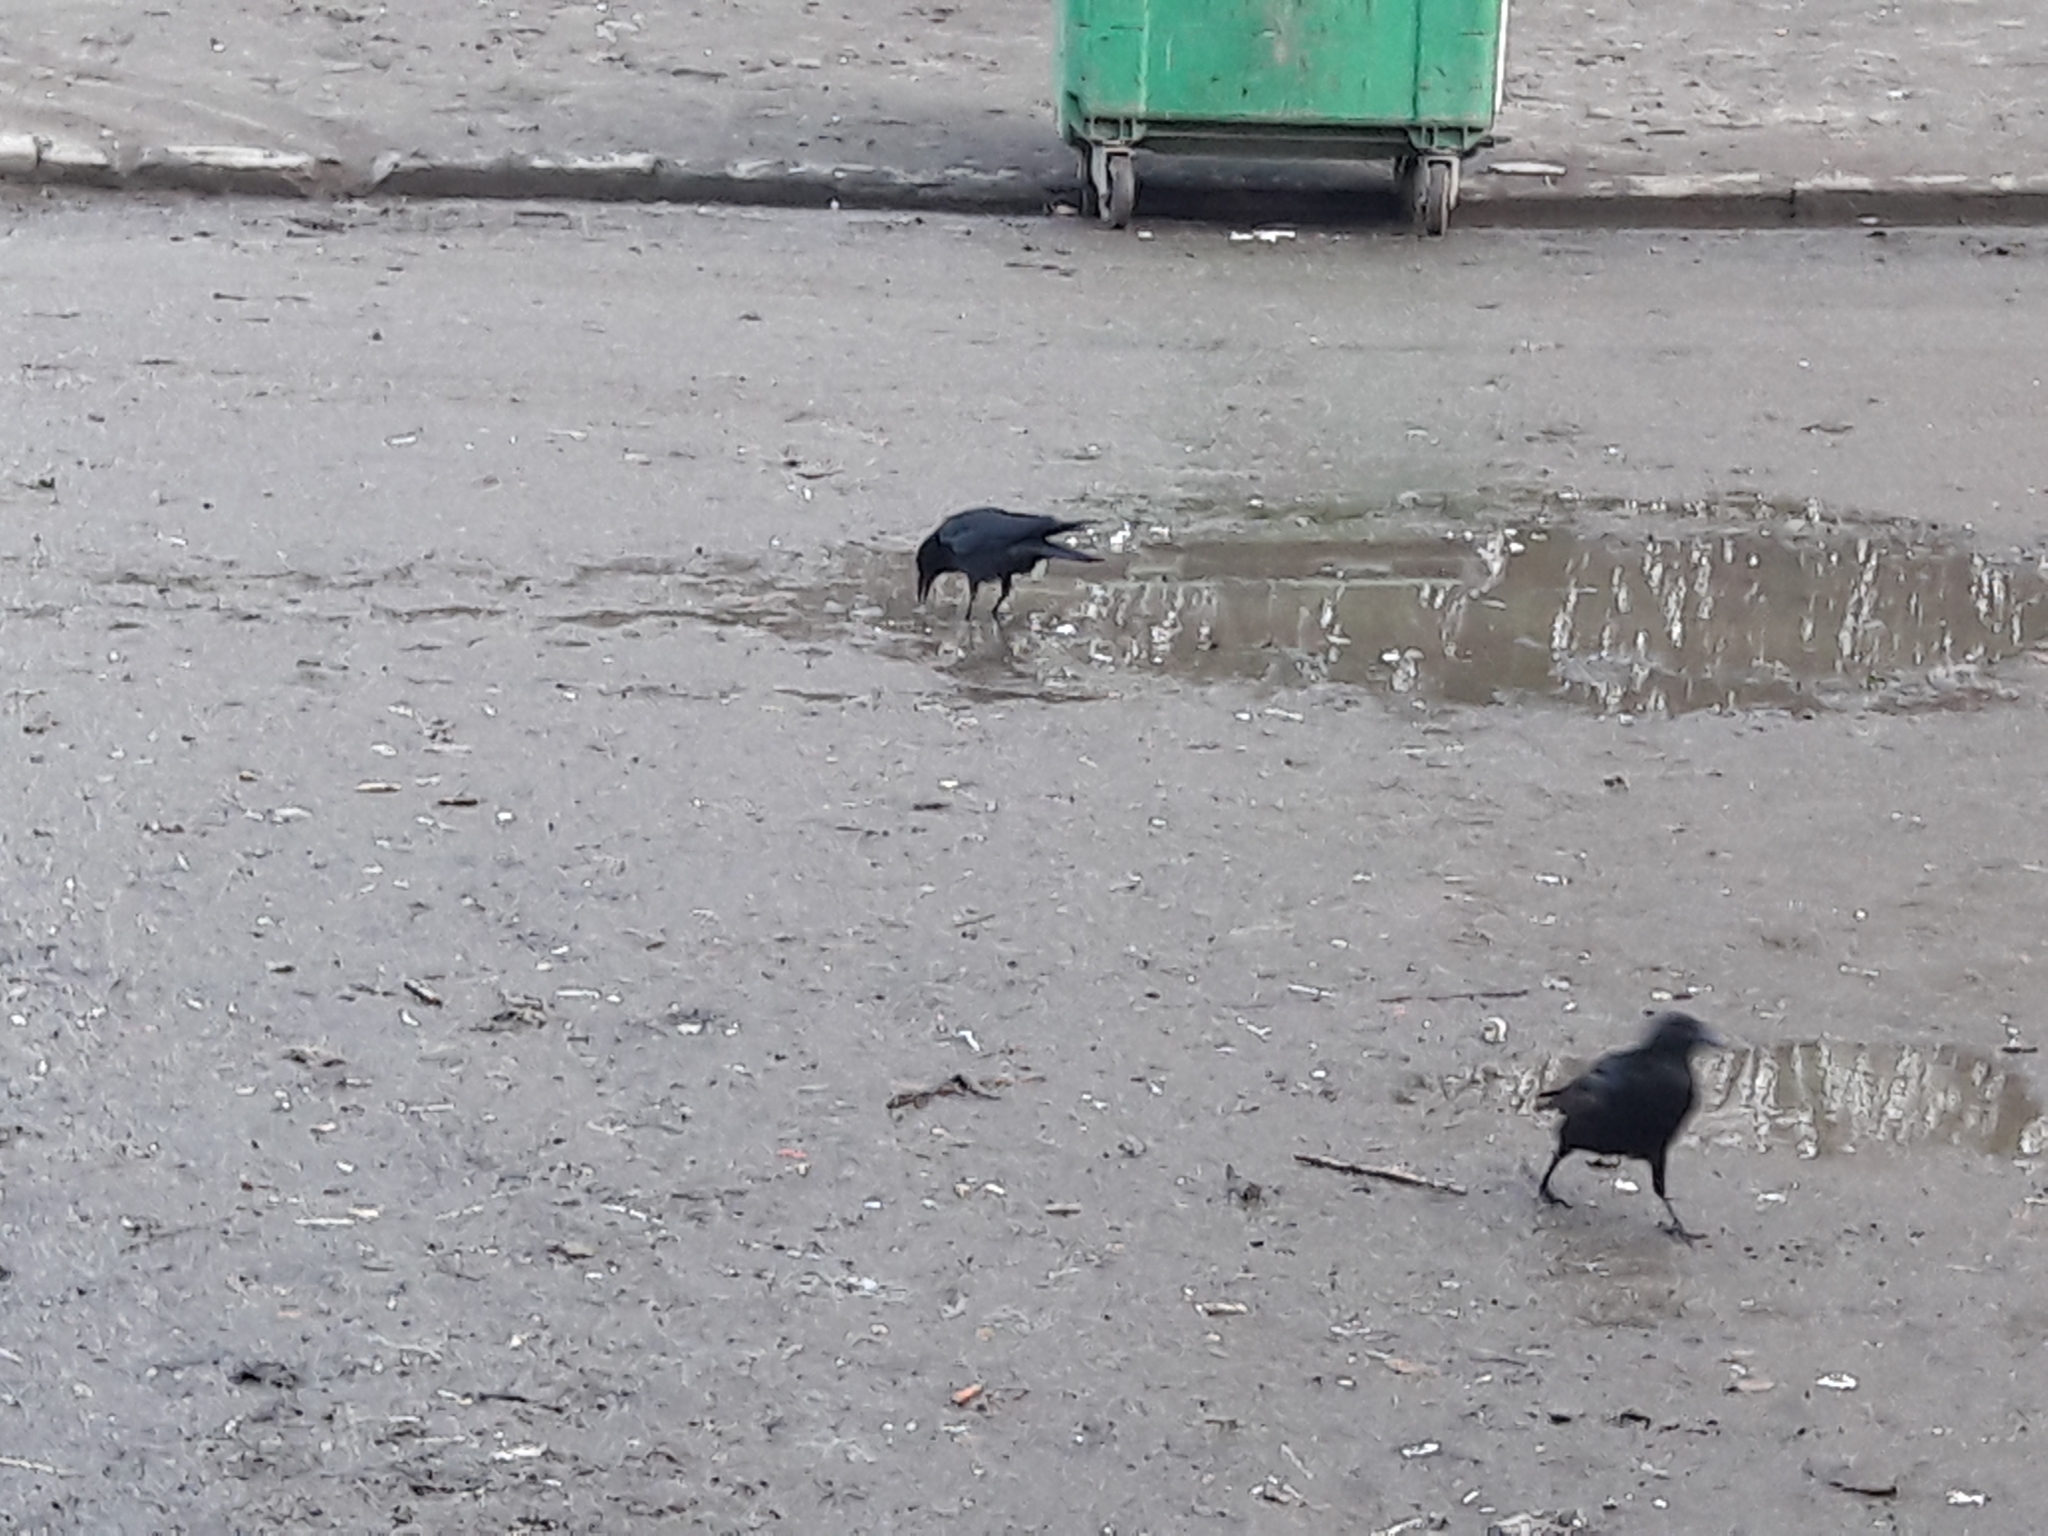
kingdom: Animalia
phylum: Chordata
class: Aves
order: Passeriformes
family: Corvidae
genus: Corvus
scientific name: Corvus corone
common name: Carrion crow
